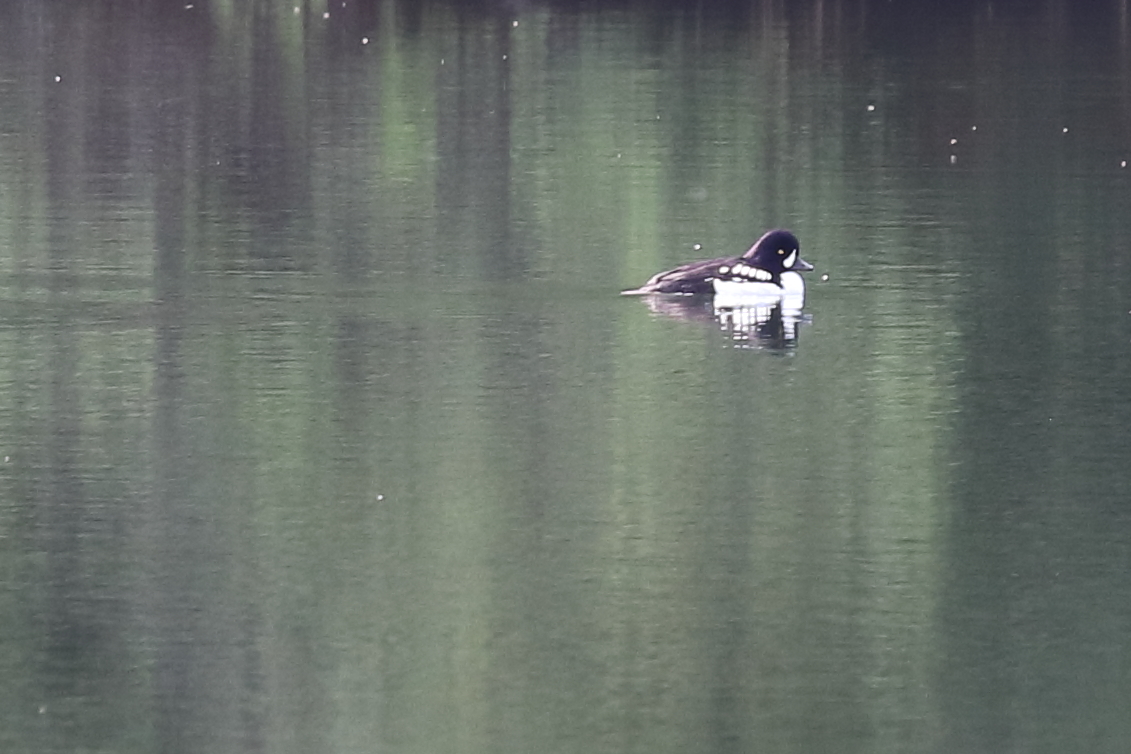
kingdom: Animalia
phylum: Chordata
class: Aves
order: Anseriformes
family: Anatidae
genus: Bucephala
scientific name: Bucephala islandica
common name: Barrow's goldeneye
